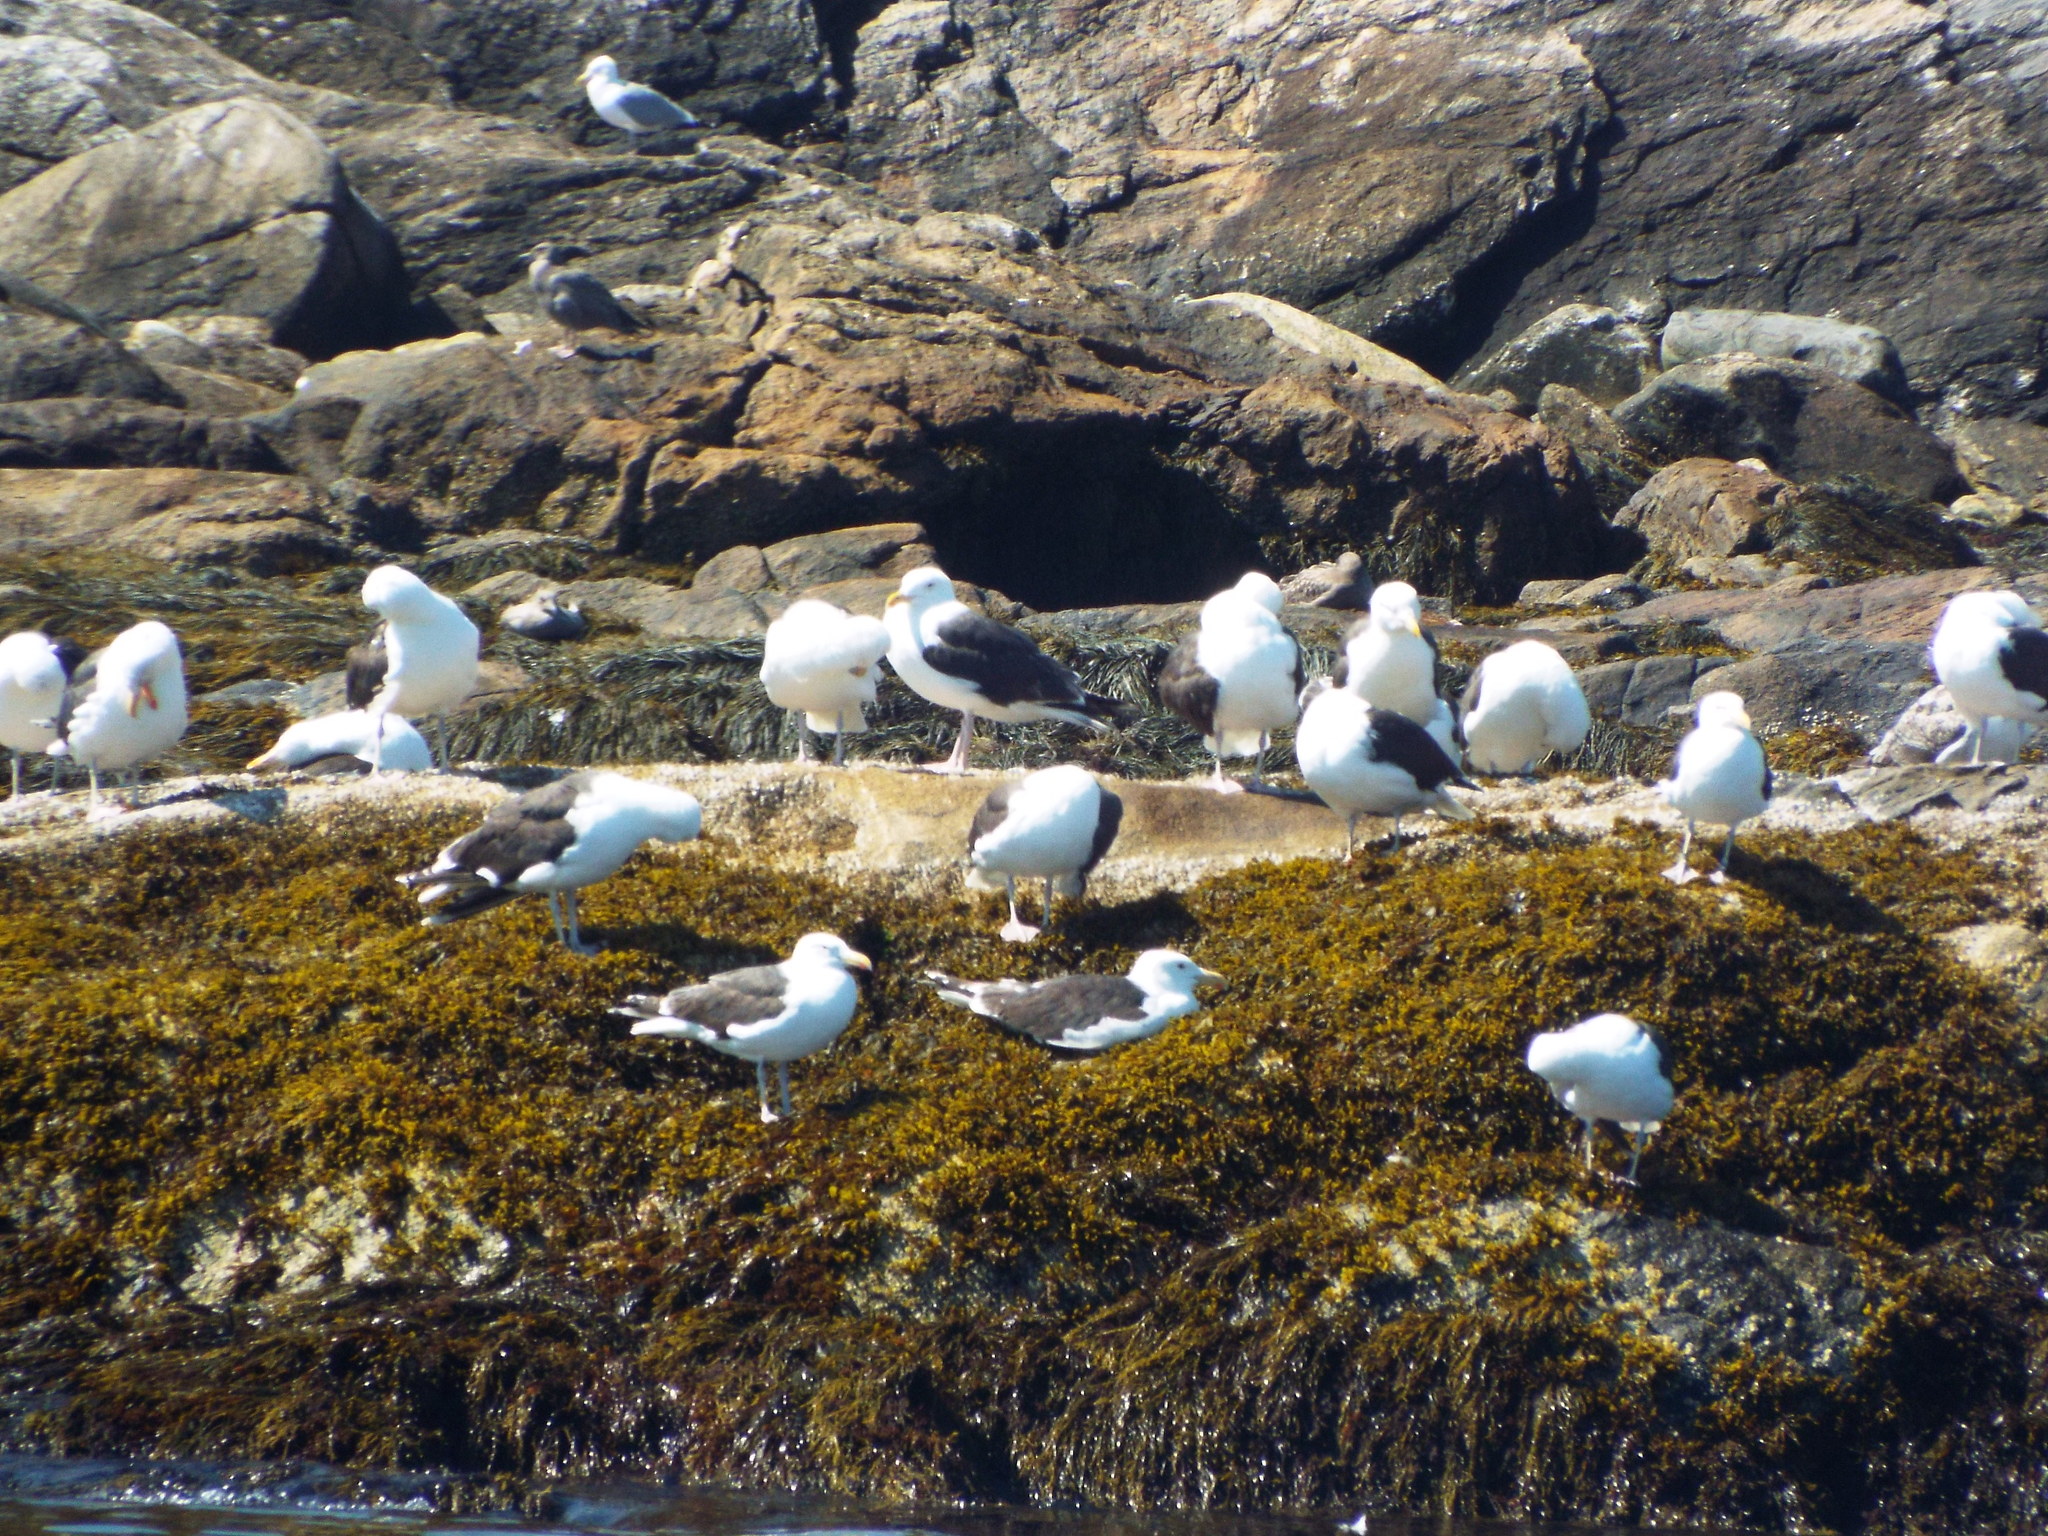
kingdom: Animalia
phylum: Chordata
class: Aves
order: Charadriiformes
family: Laridae
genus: Larus
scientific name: Larus marinus
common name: Great black-backed gull
